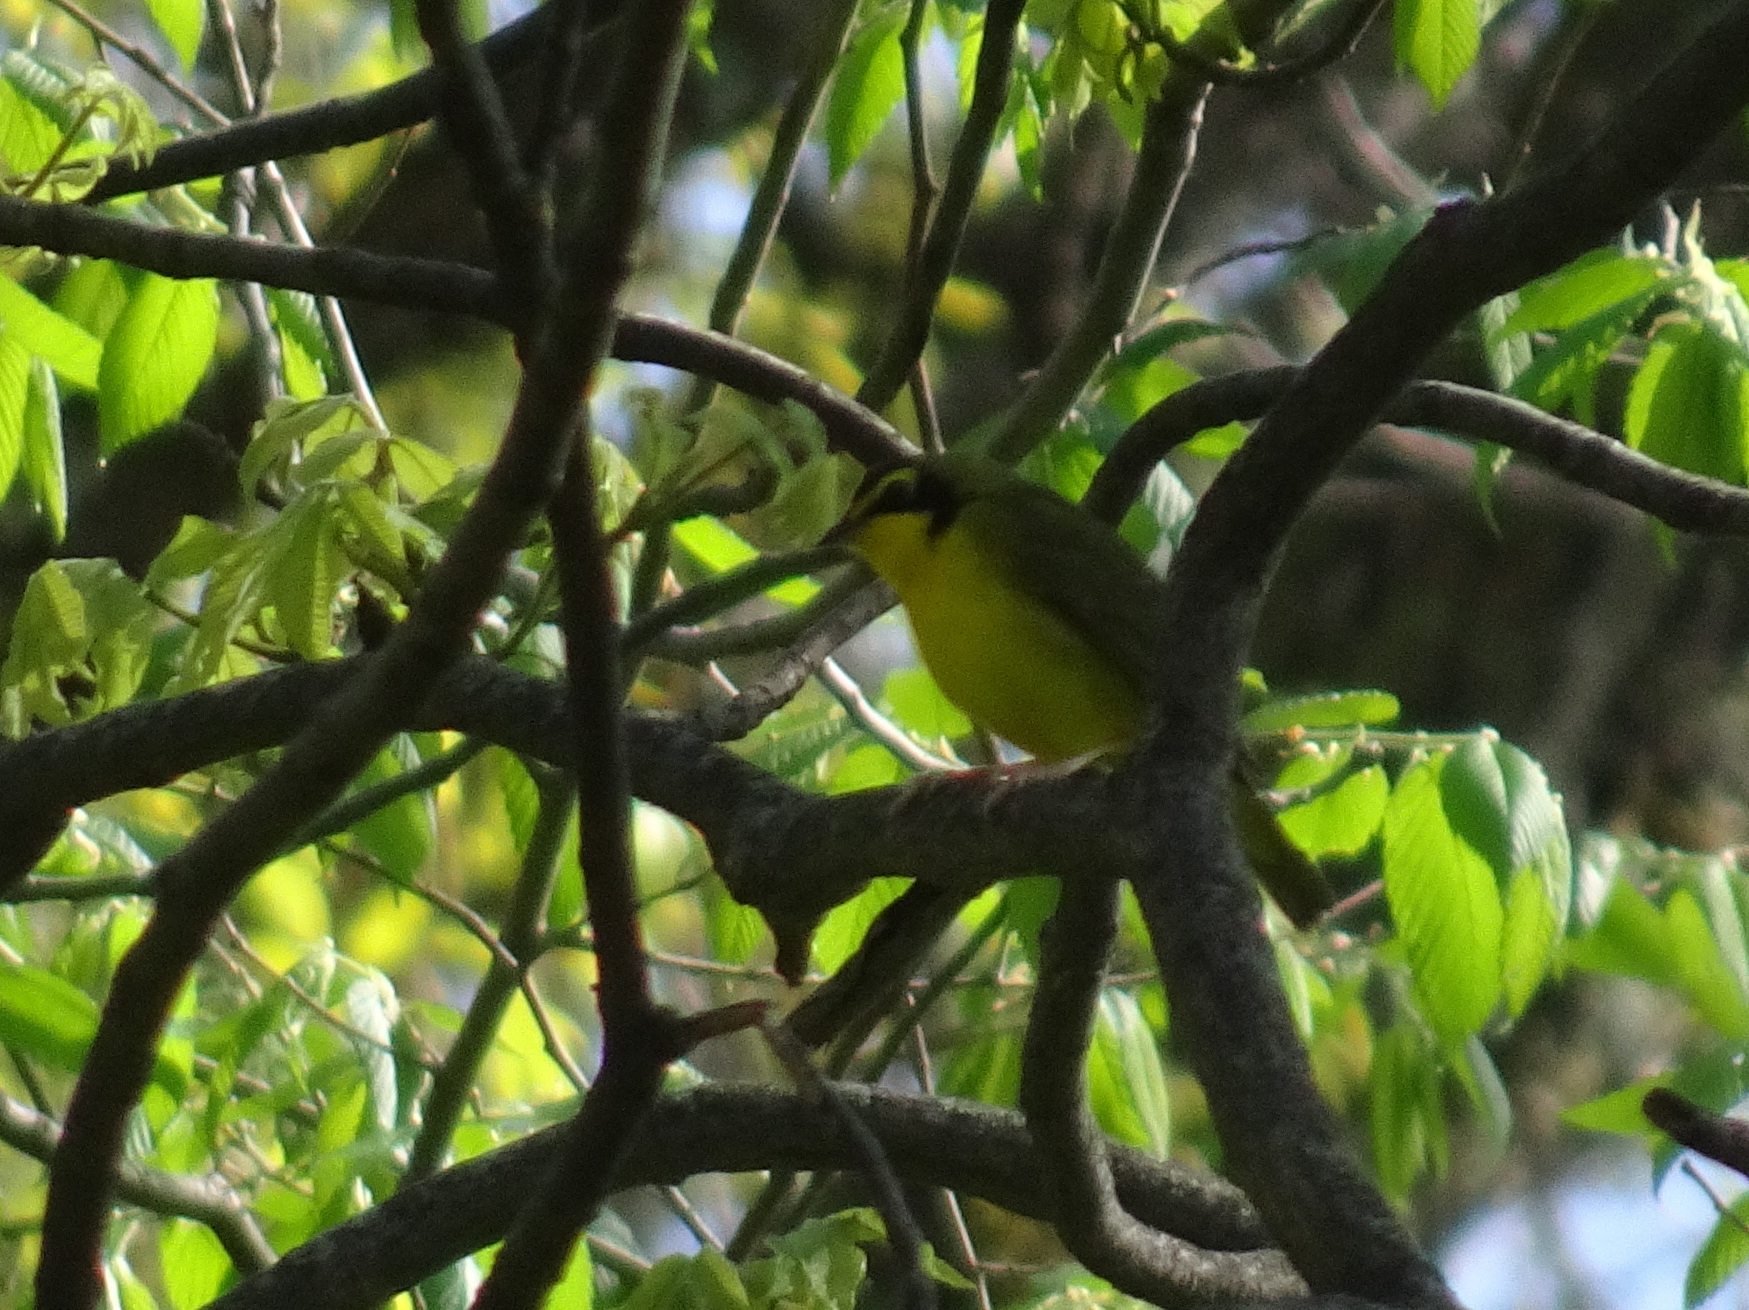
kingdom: Animalia
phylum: Chordata
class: Aves
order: Passeriformes
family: Parulidae
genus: Geothlypis
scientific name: Geothlypis formosa
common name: Kentucky warbler
